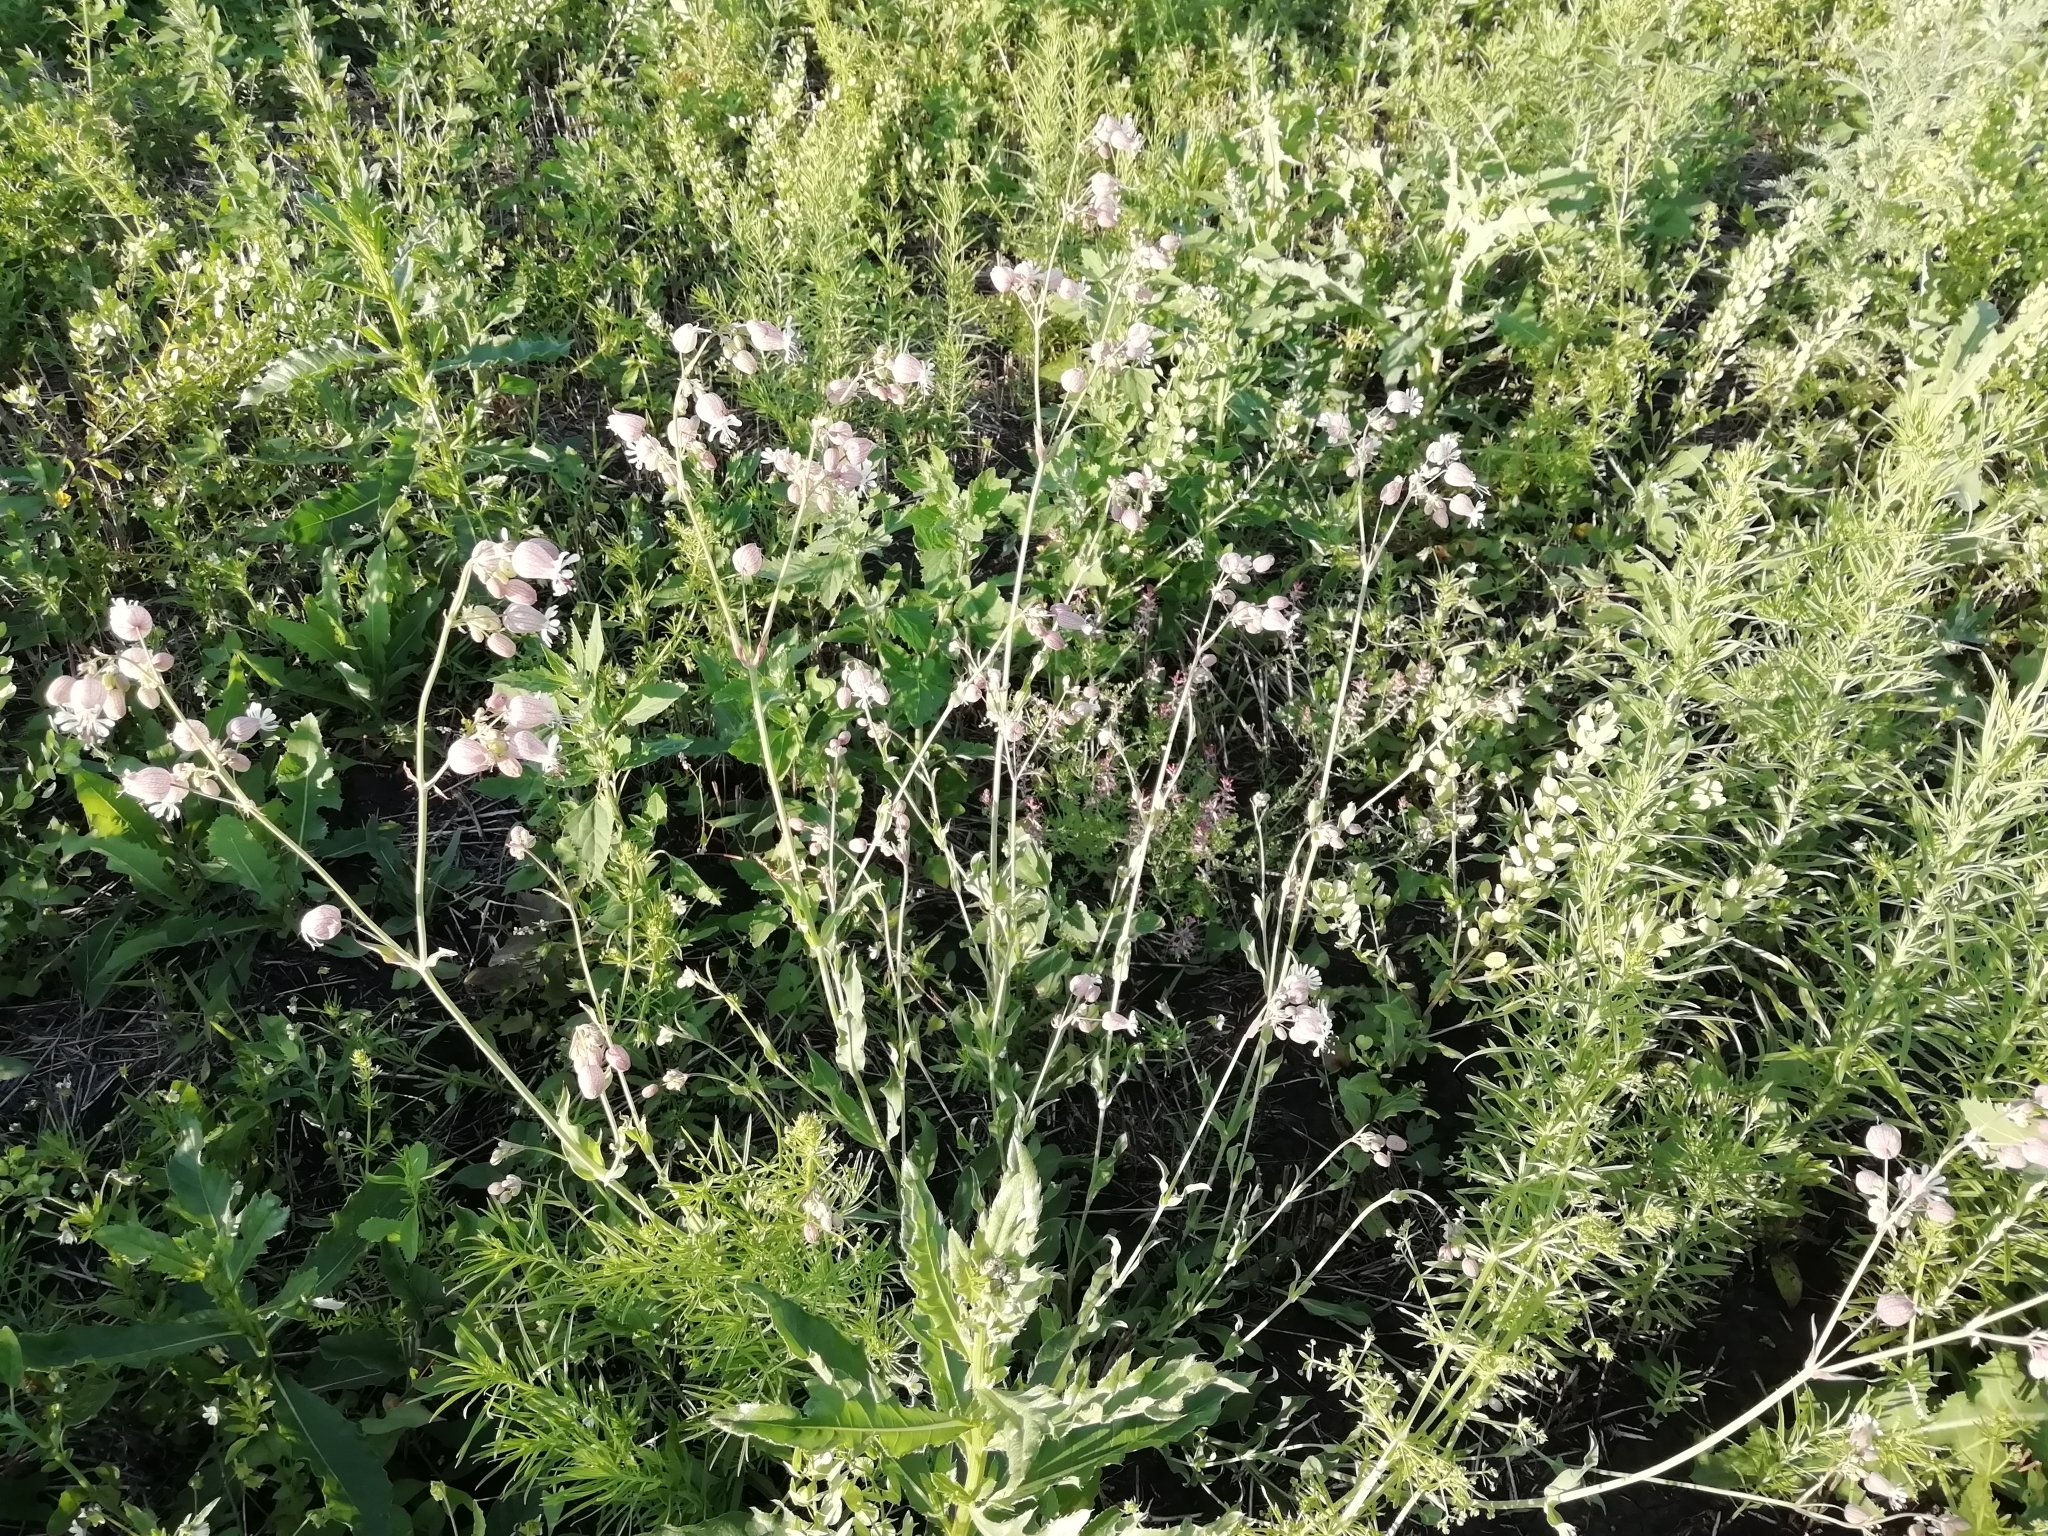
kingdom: Plantae
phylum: Tracheophyta
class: Magnoliopsida
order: Caryophyllales
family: Caryophyllaceae
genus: Silene
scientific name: Silene vulgaris
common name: Bladder campion
